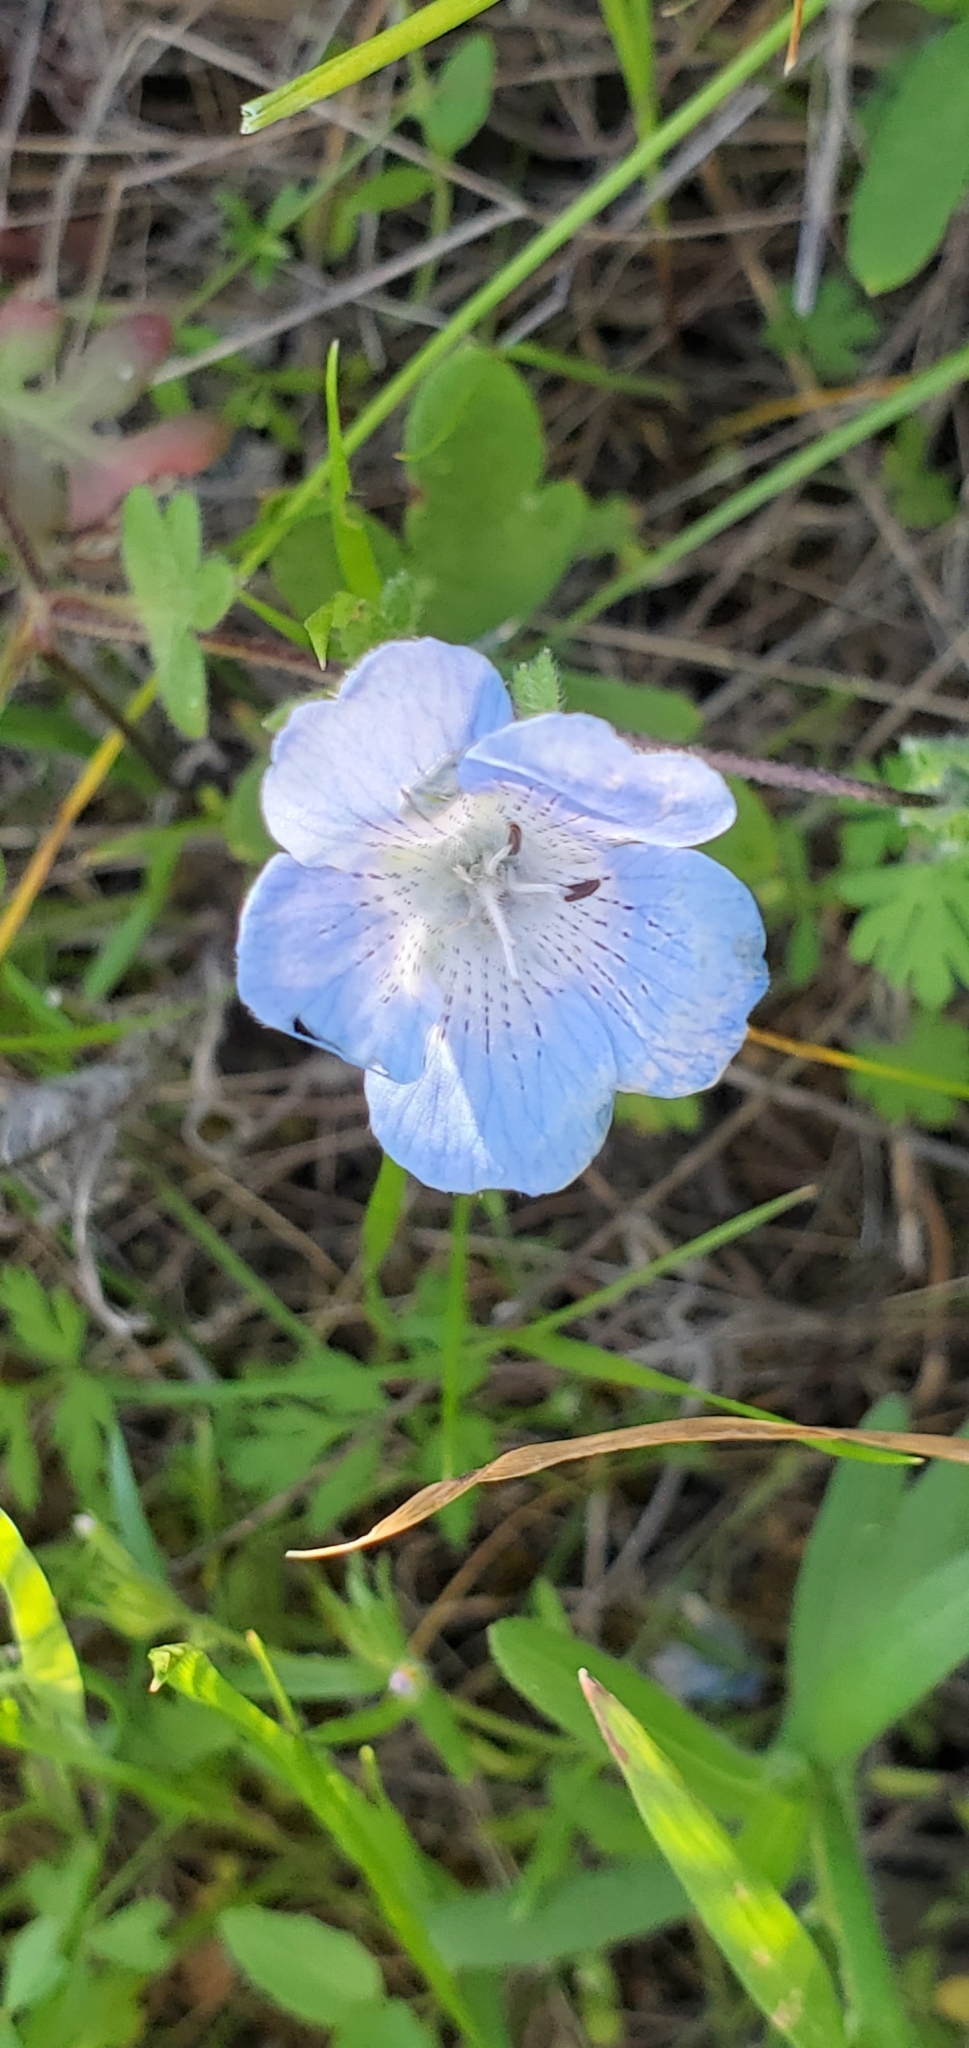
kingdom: Plantae
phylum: Tracheophyta
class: Magnoliopsida
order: Boraginales
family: Hydrophyllaceae
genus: Nemophila
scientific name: Nemophila menziesii
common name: Baby's-blue-eyes
